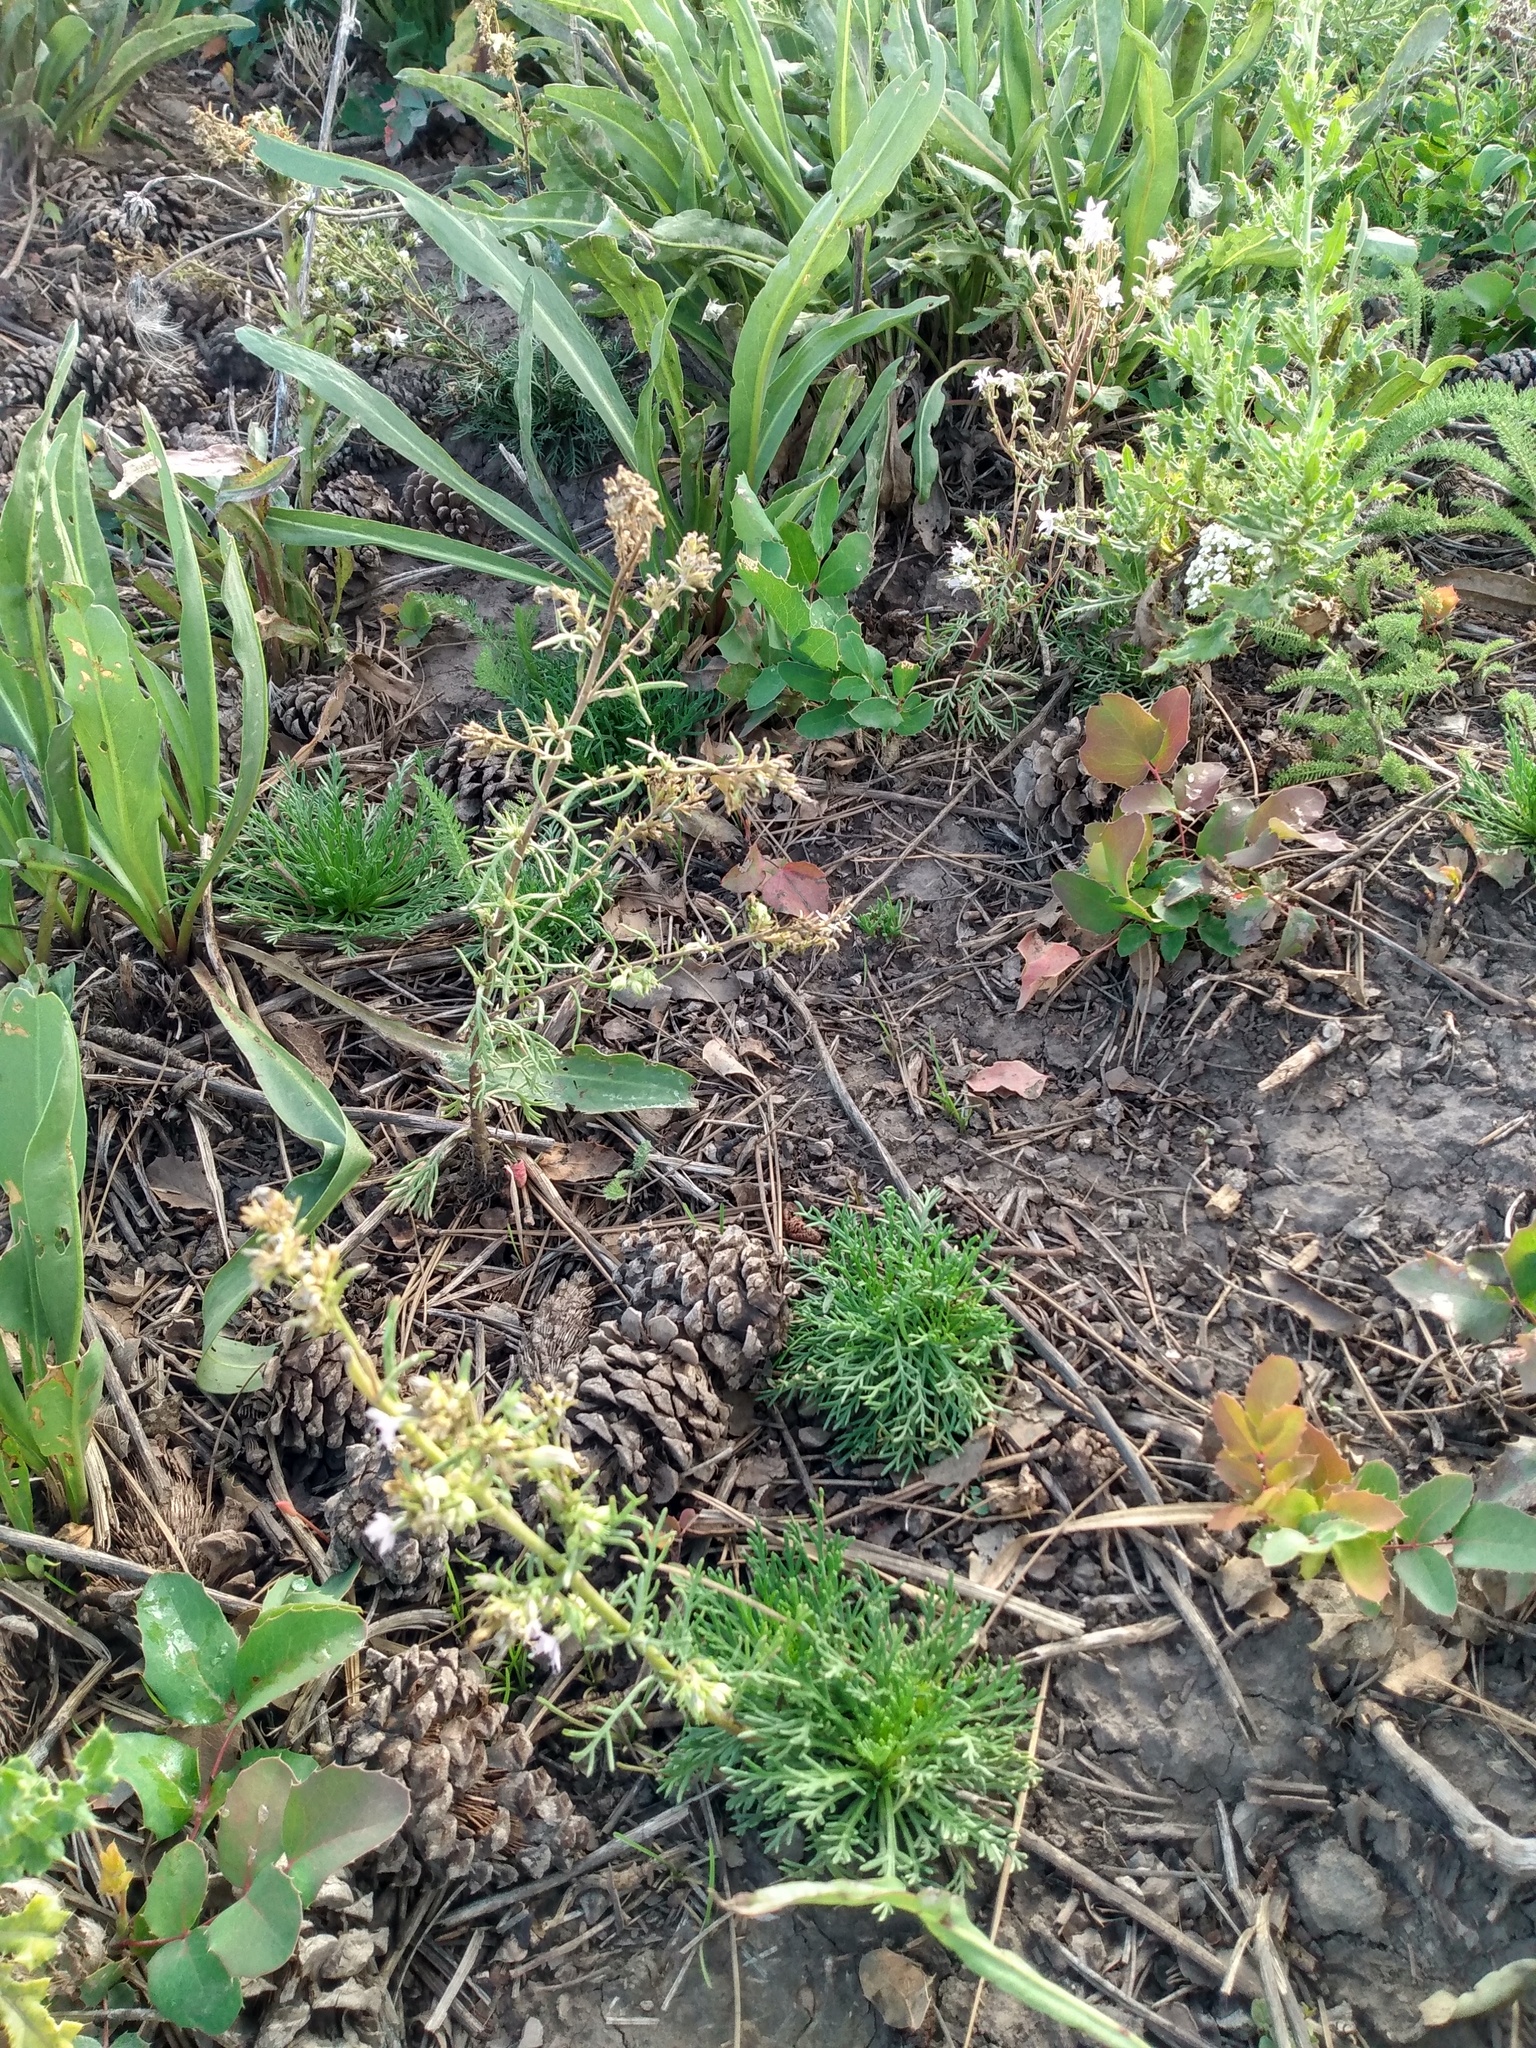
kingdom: Plantae
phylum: Tracheophyta
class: Magnoliopsida
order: Ericales
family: Polemoniaceae
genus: Ipomopsis
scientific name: Ipomopsis polyantha
